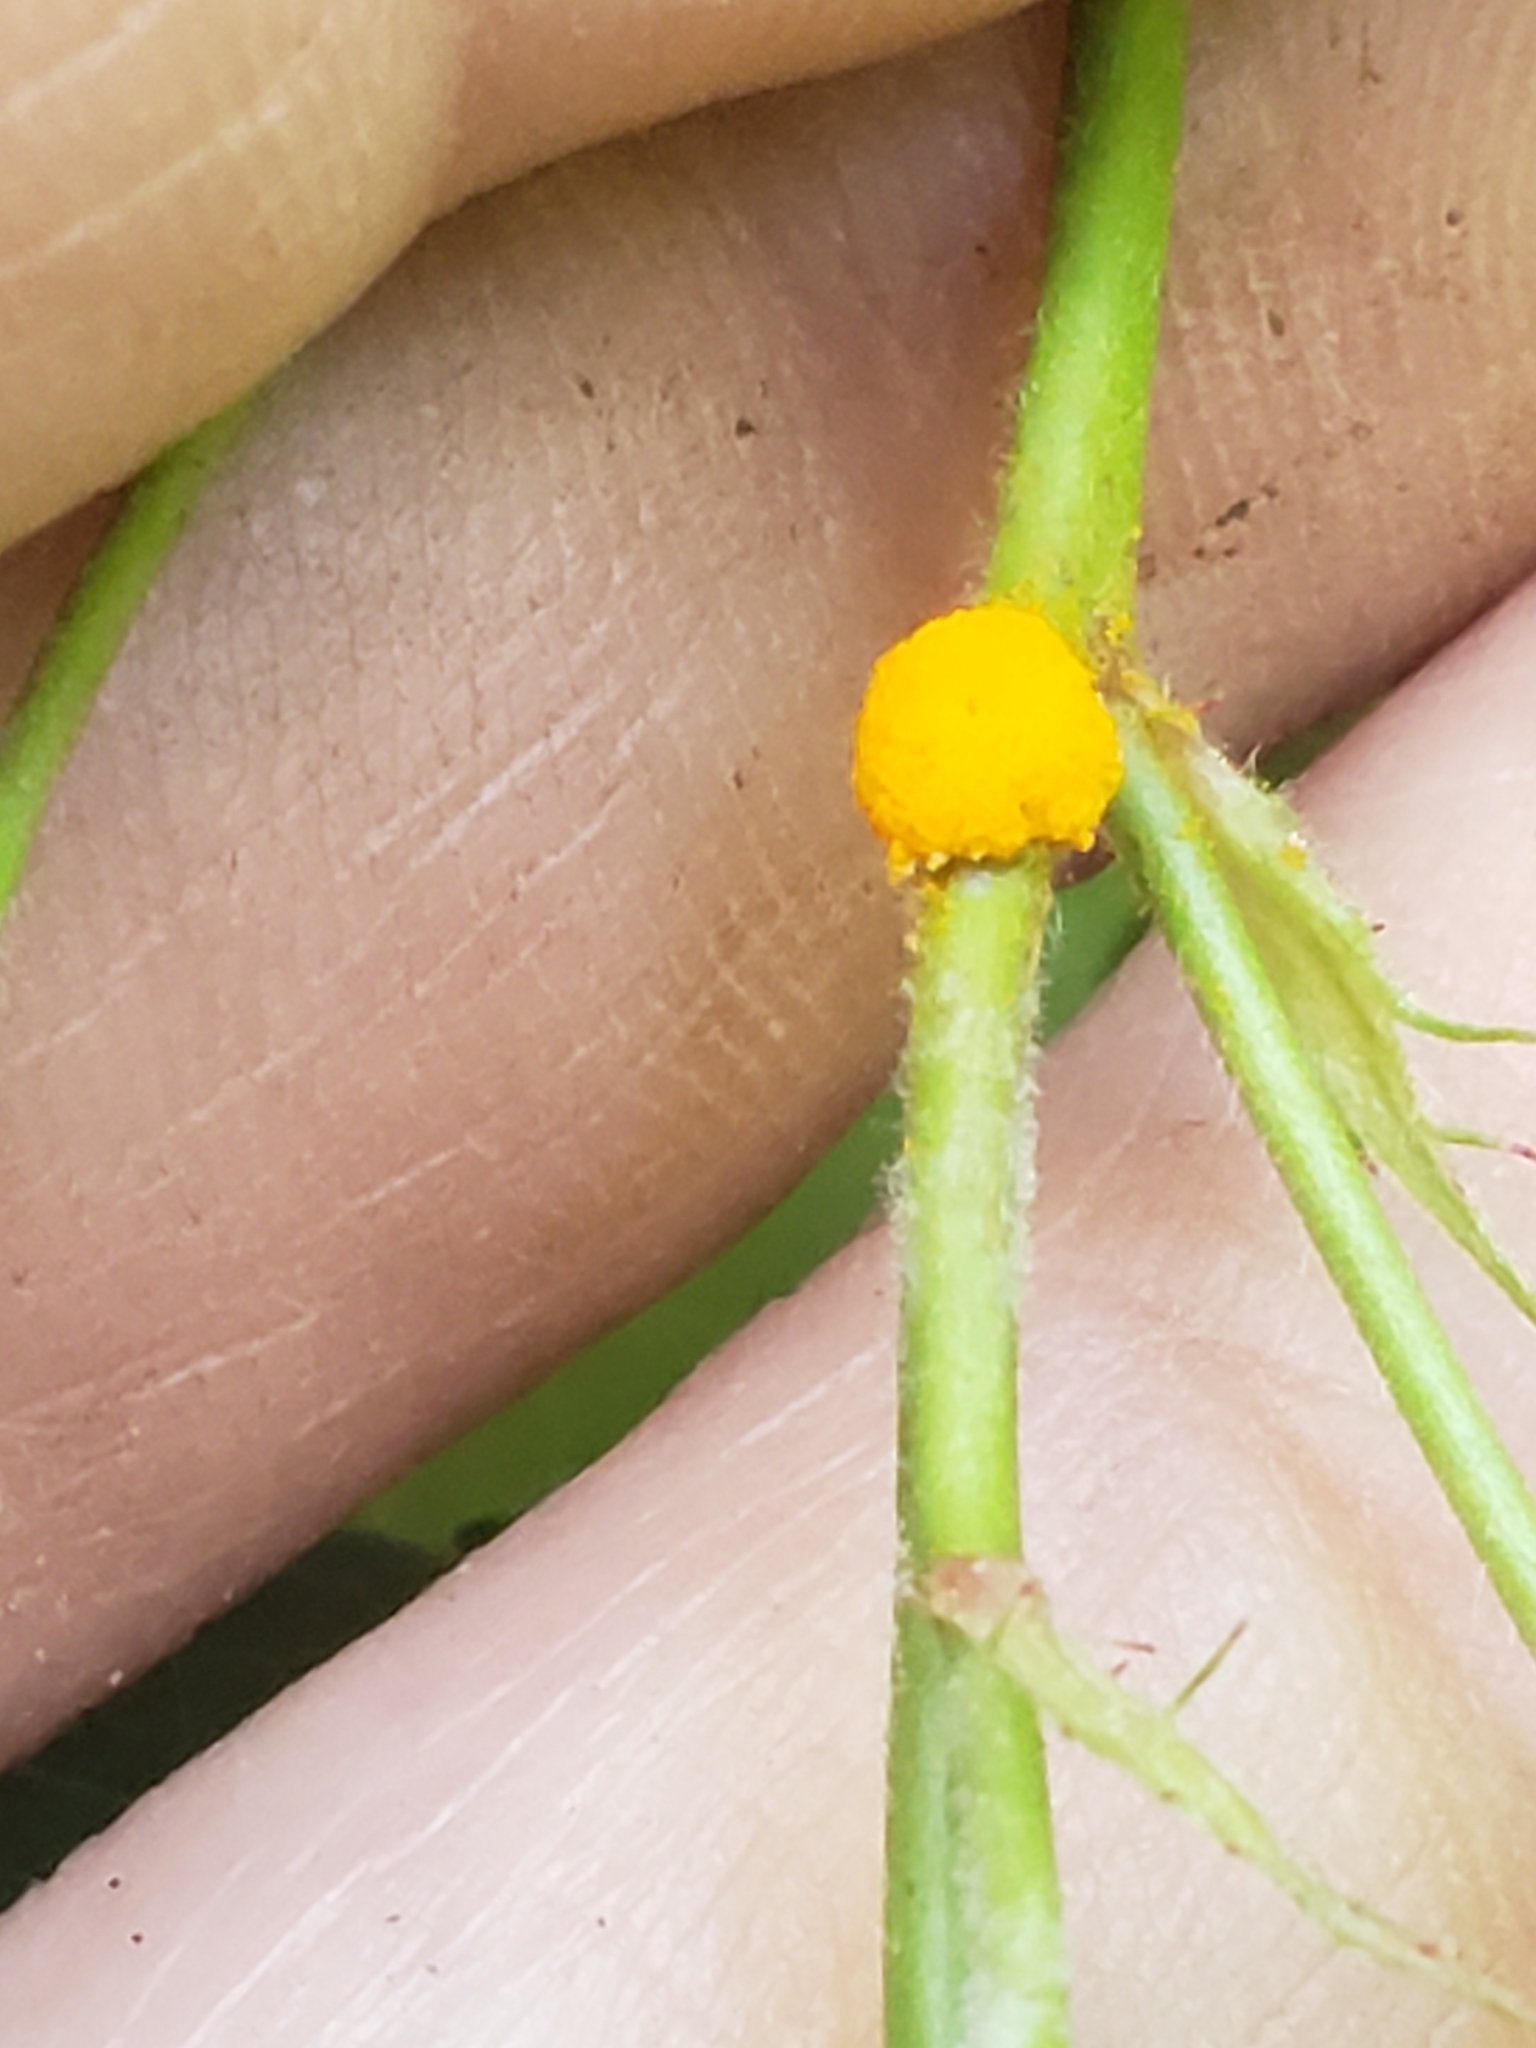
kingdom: Fungi
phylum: Basidiomycota
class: Pucciniomycetes
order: Pucciniales
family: Phragmidiaceae
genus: Phragmidium
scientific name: Phragmidium rosae-multiflorae
